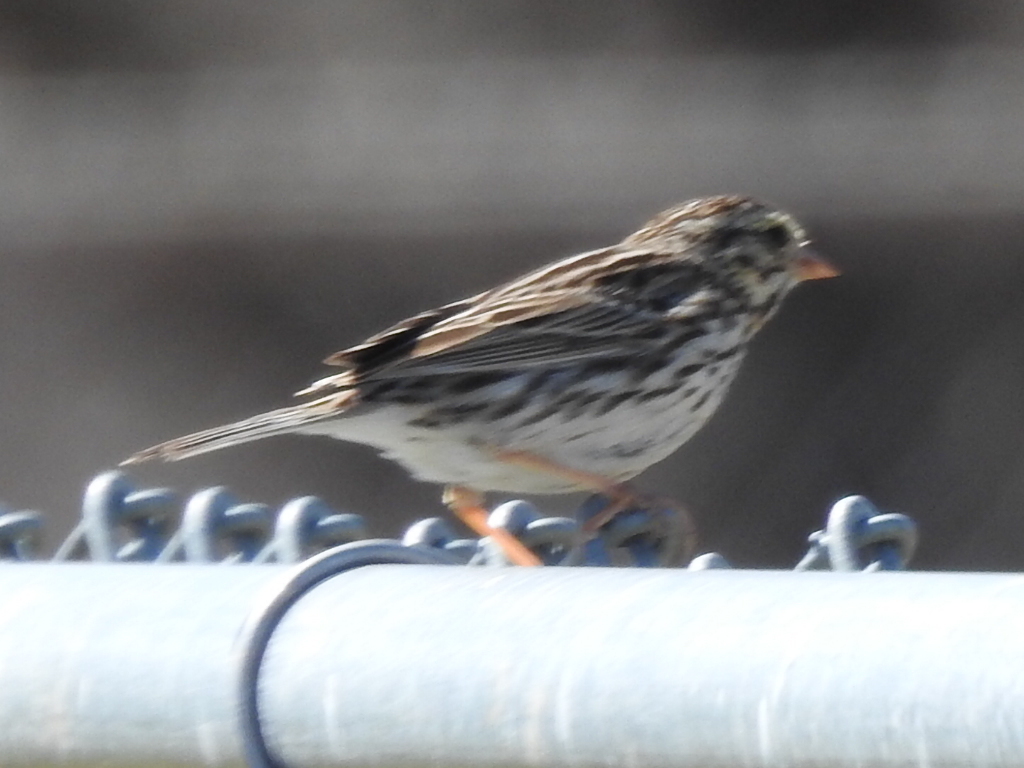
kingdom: Animalia
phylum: Chordata
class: Aves
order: Passeriformes
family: Passerellidae
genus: Passerculus
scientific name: Passerculus sandwichensis
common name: Savannah sparrow
